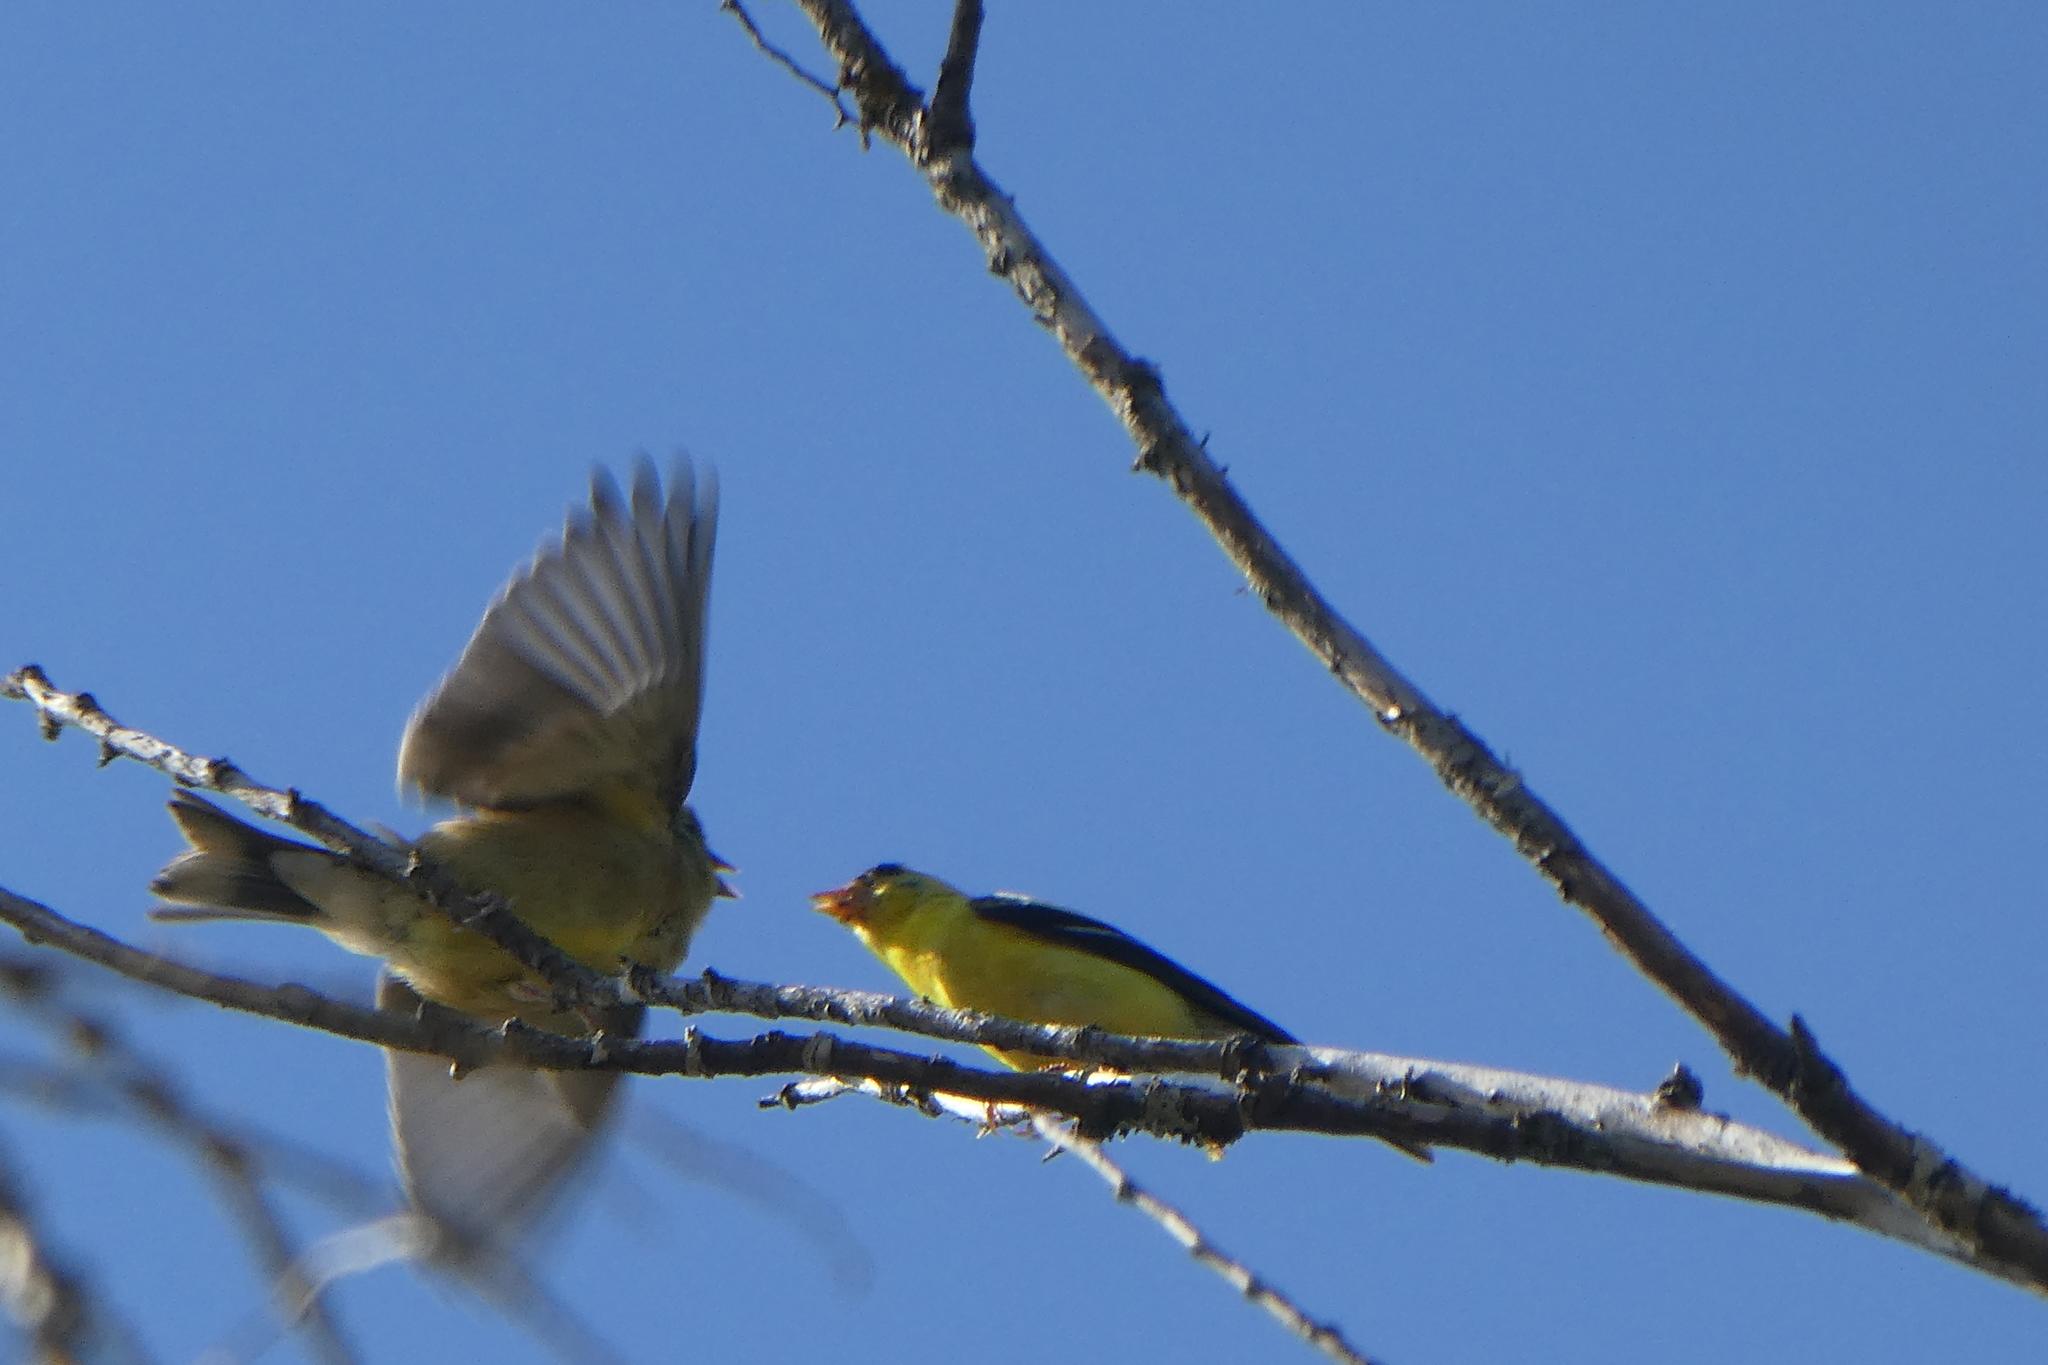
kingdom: Animalia
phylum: Chordata
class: Aves
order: Passeriformes
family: Fringillidae
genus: Spinus
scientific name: Spinus tristis
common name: American goldfinch
